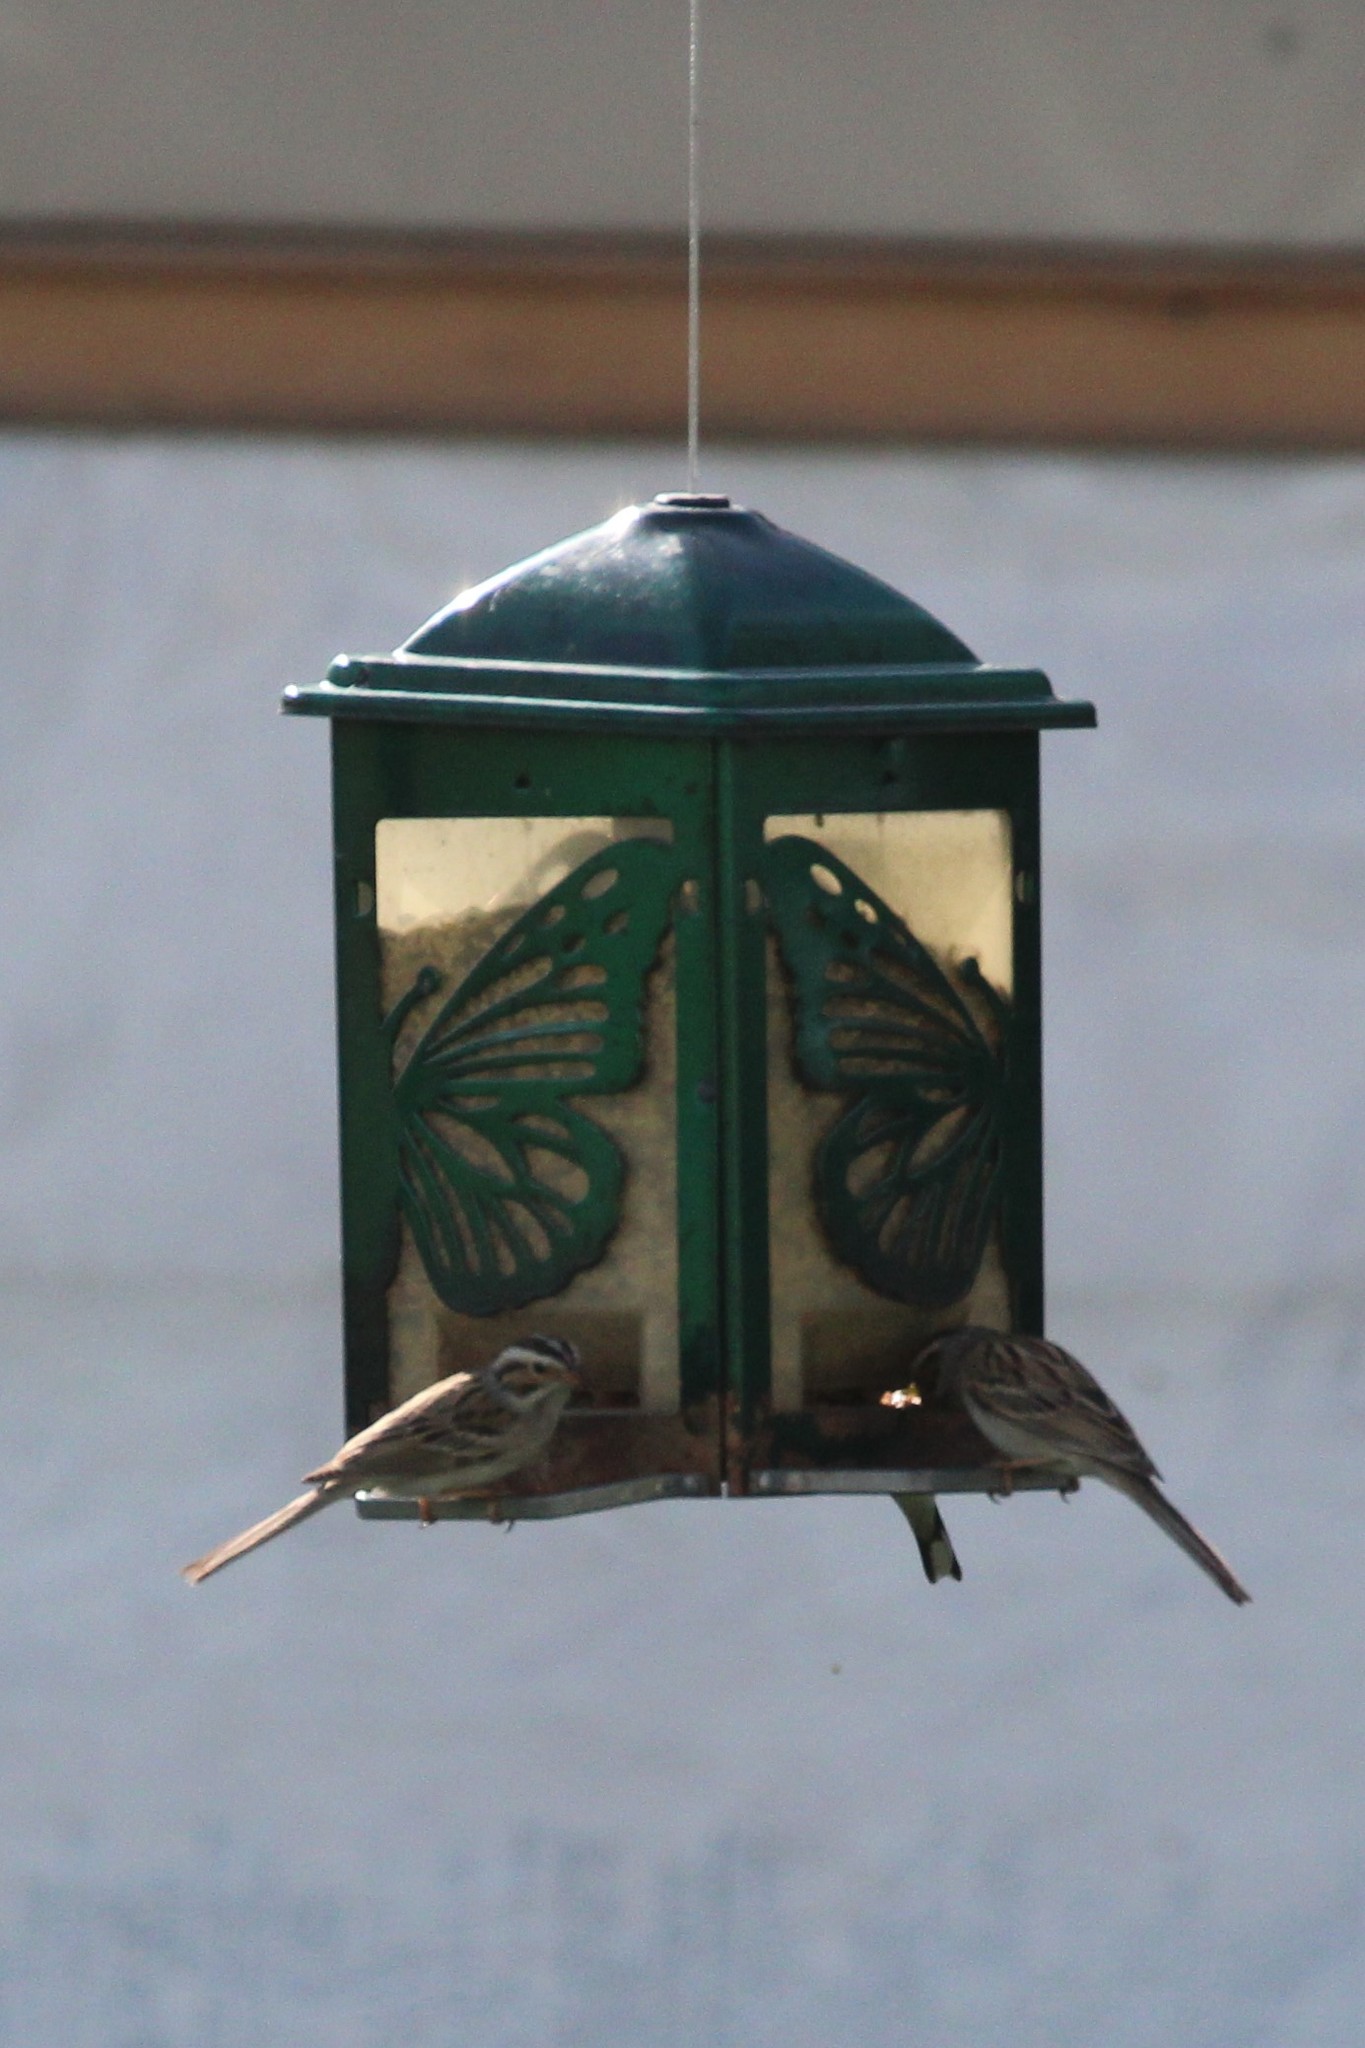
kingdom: Animalia
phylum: Chordata
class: Aves
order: Passeriformes
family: Passerellidae
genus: Spizella
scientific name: Spizella pallida
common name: Clay-colored sparrow
